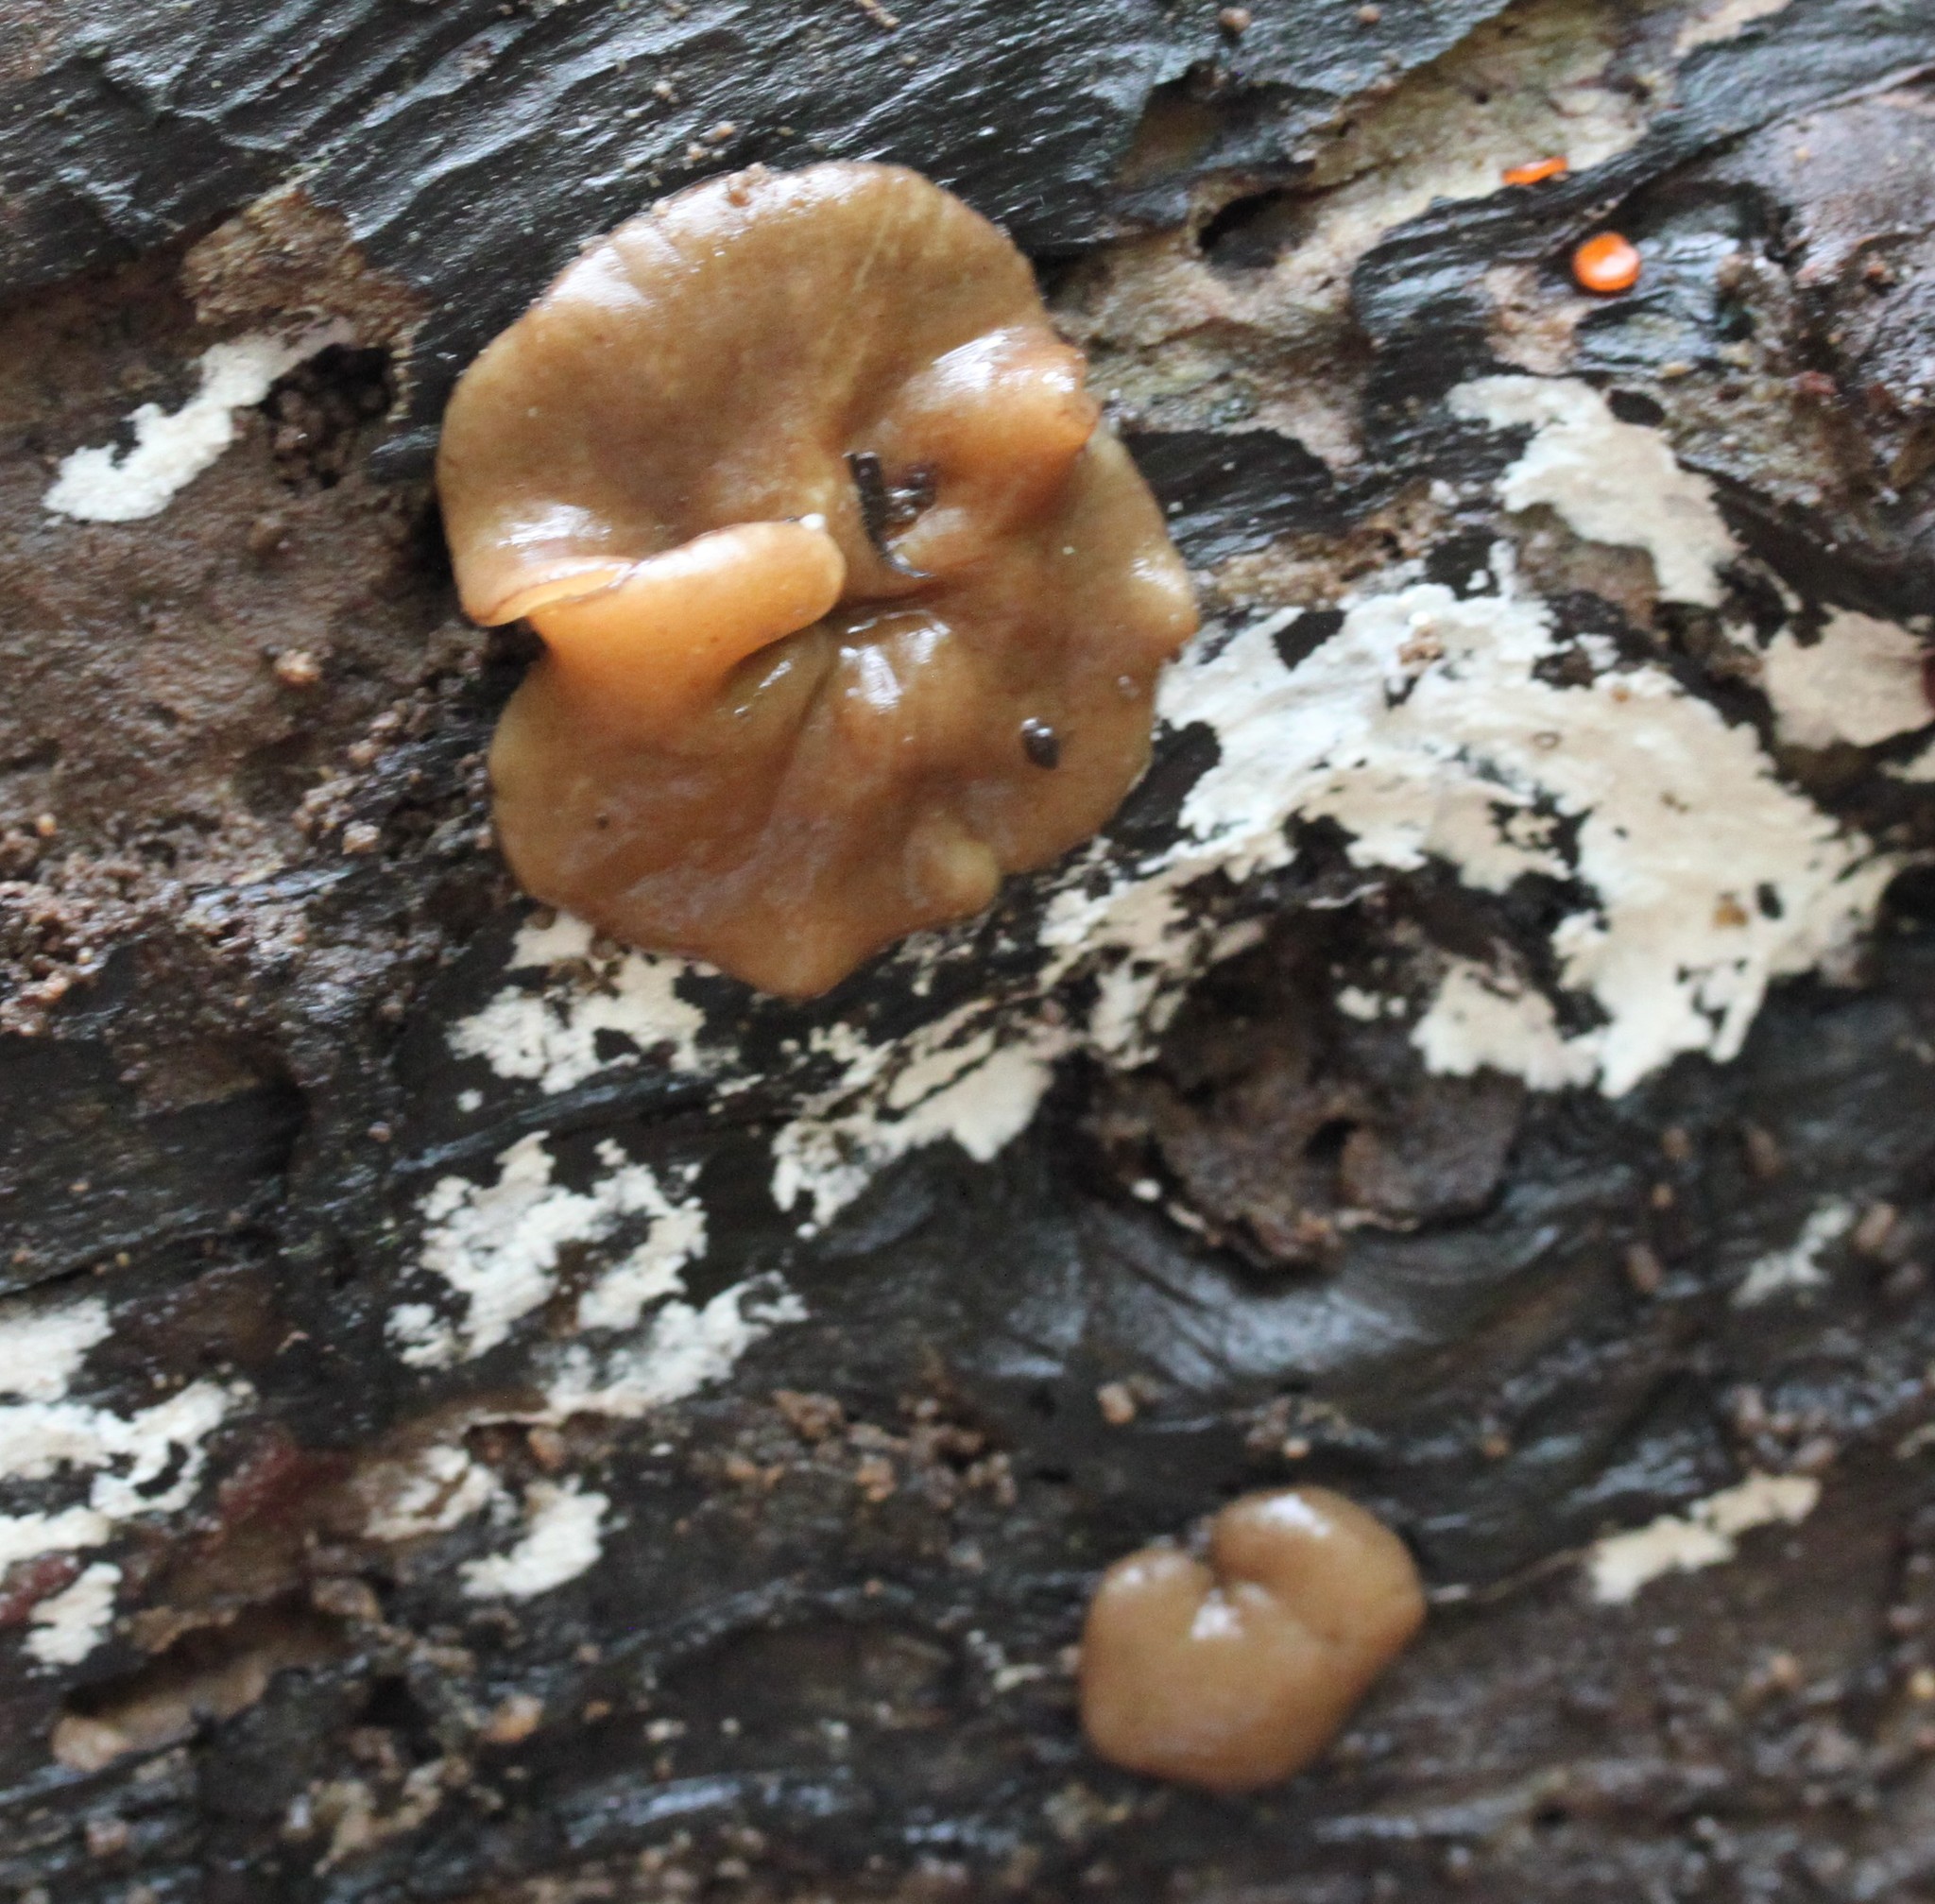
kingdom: Fungi
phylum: Ascomycota
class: Pezizomycetes
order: Pezizales
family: Pezizaceae
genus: Pachyella
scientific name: Pachyella clypeata
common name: Copper penny fungus
